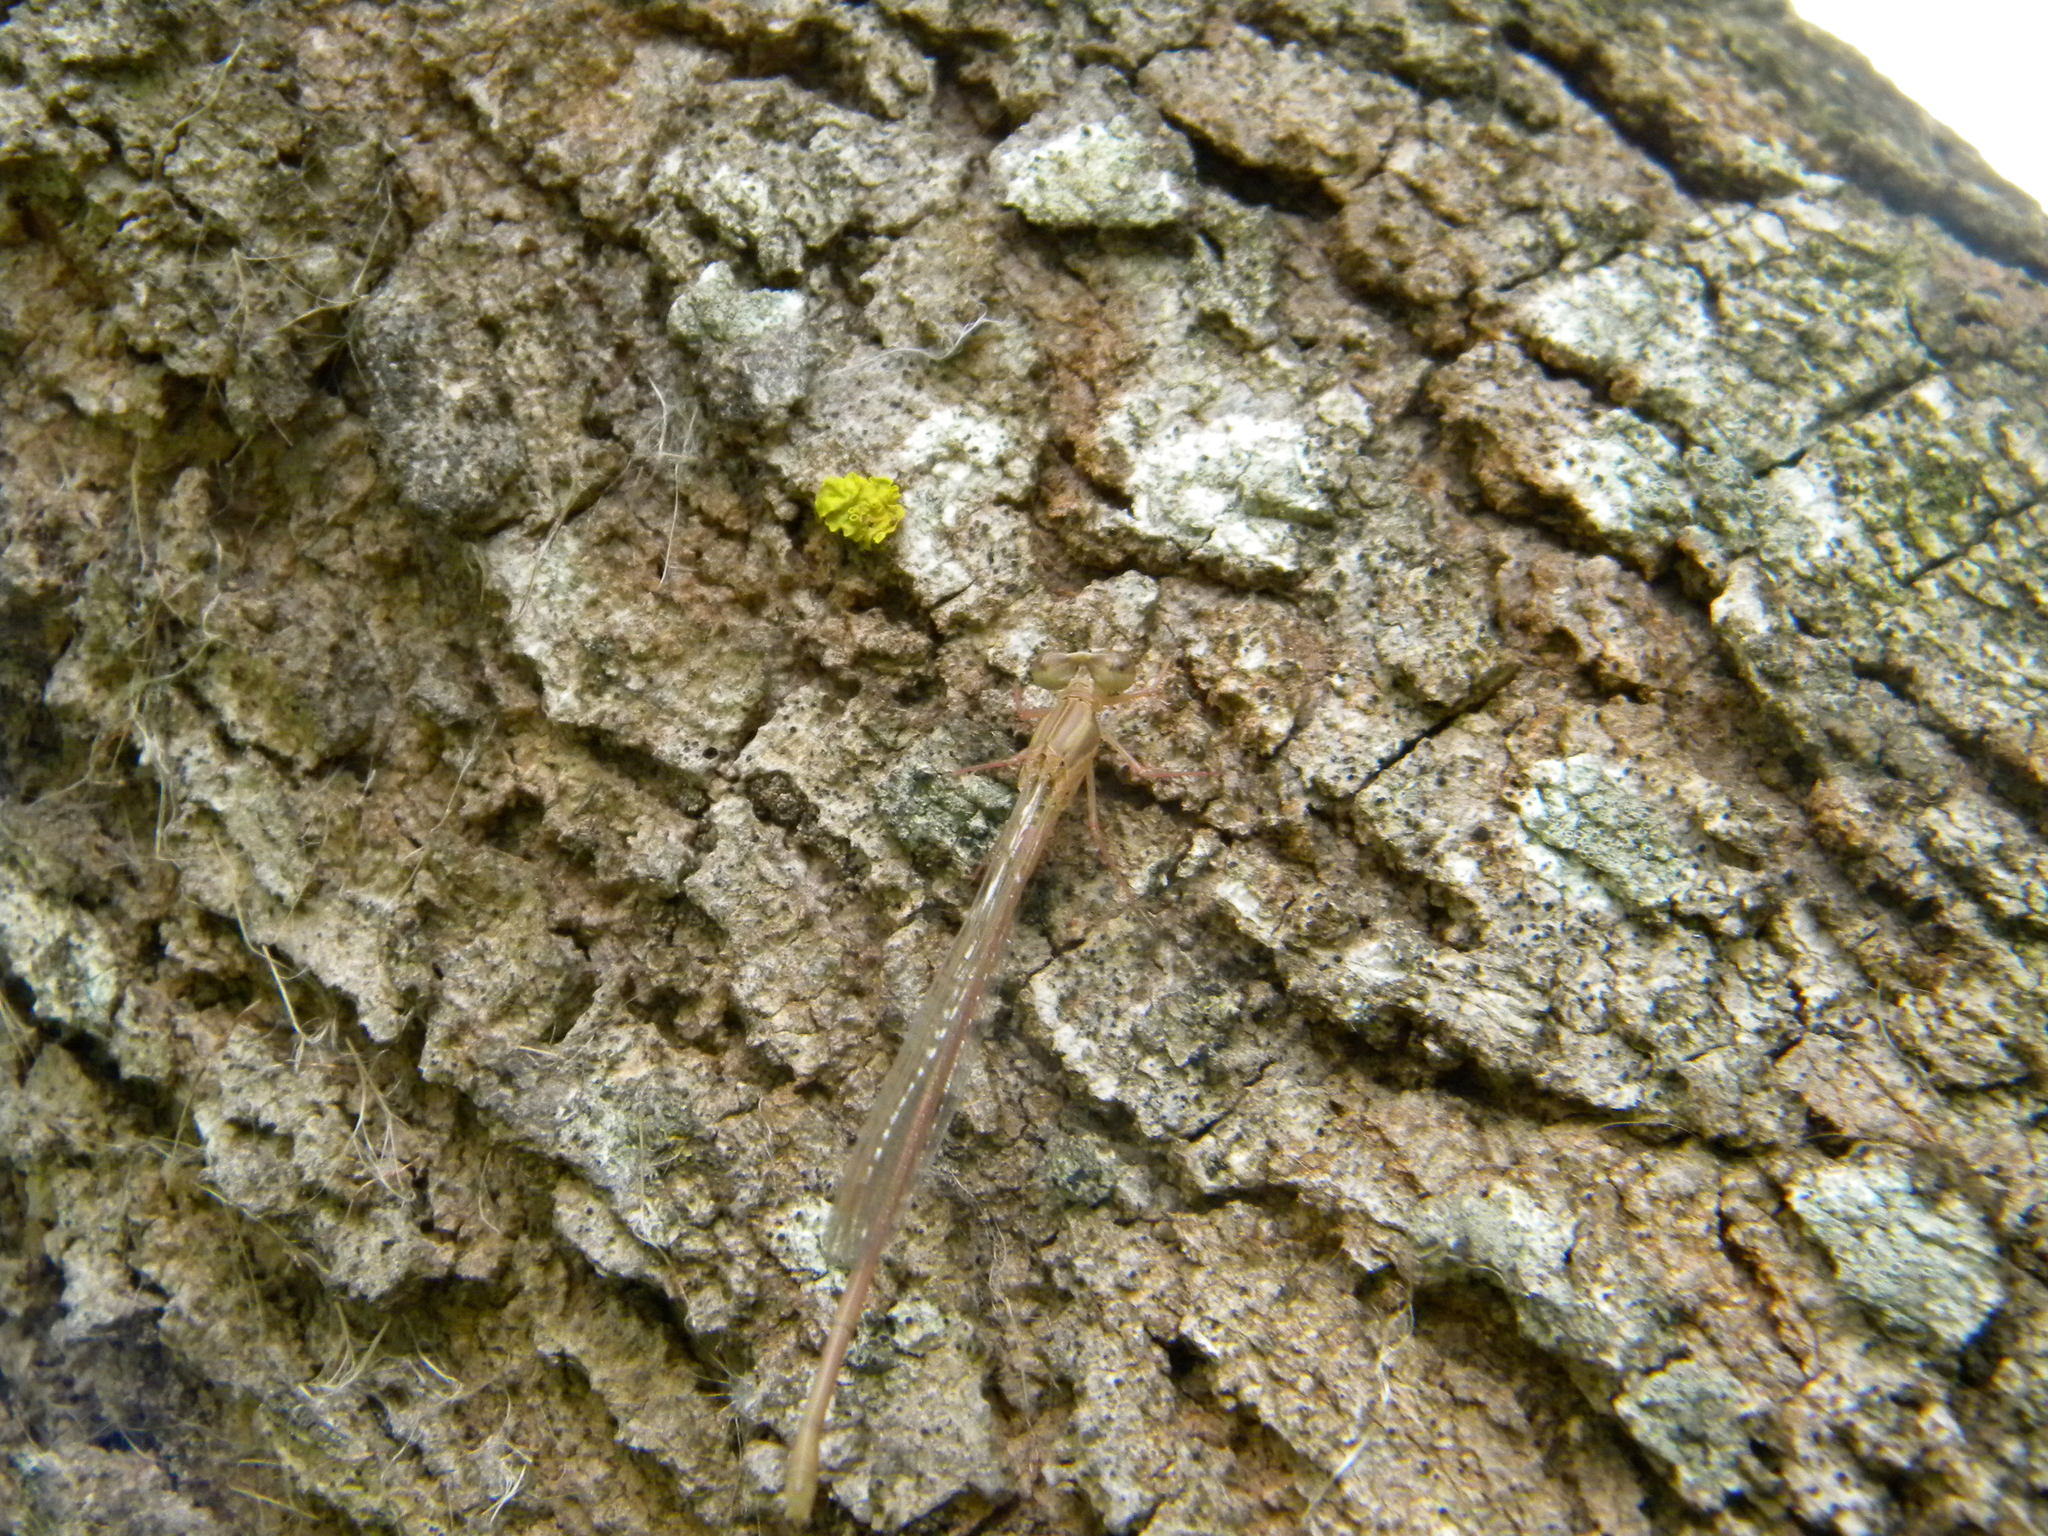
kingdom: Animalia
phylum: Arthropoda
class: Insecta
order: Odonata
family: Coenagrionidae
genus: Ceriagrion
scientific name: Ceriagrion glabrum
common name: Common pond damsel
